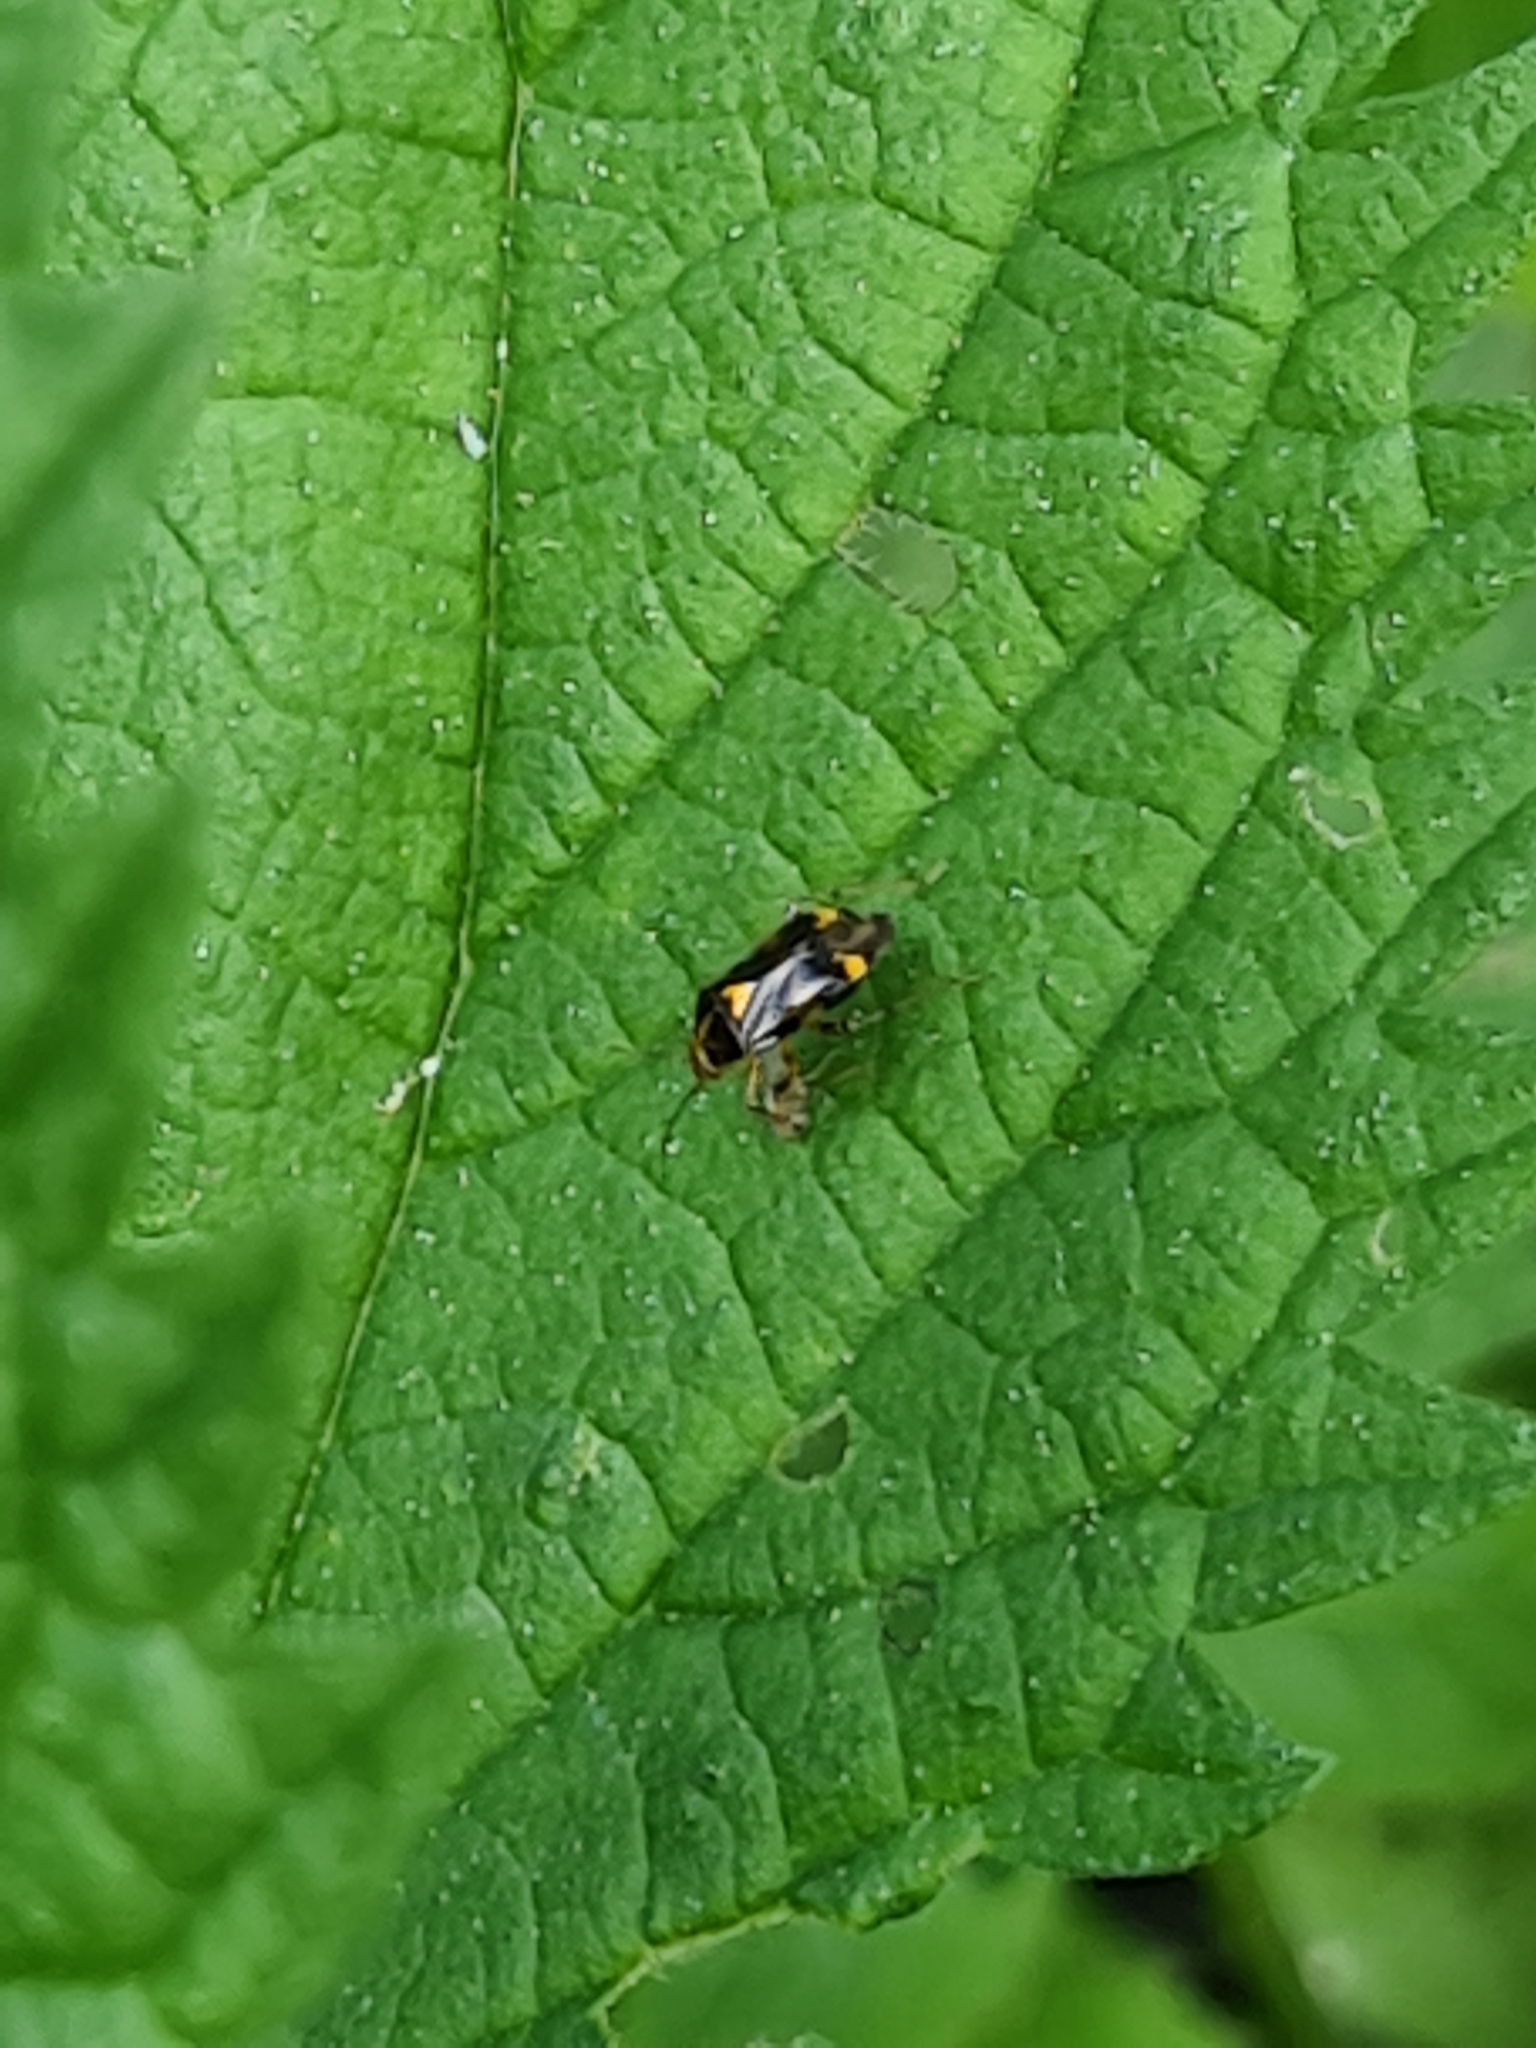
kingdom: Animalia
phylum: Arthropoda
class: Insecta
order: Hemiptera
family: Miridae
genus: Liocoris
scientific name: Liocoris tripustulatus
